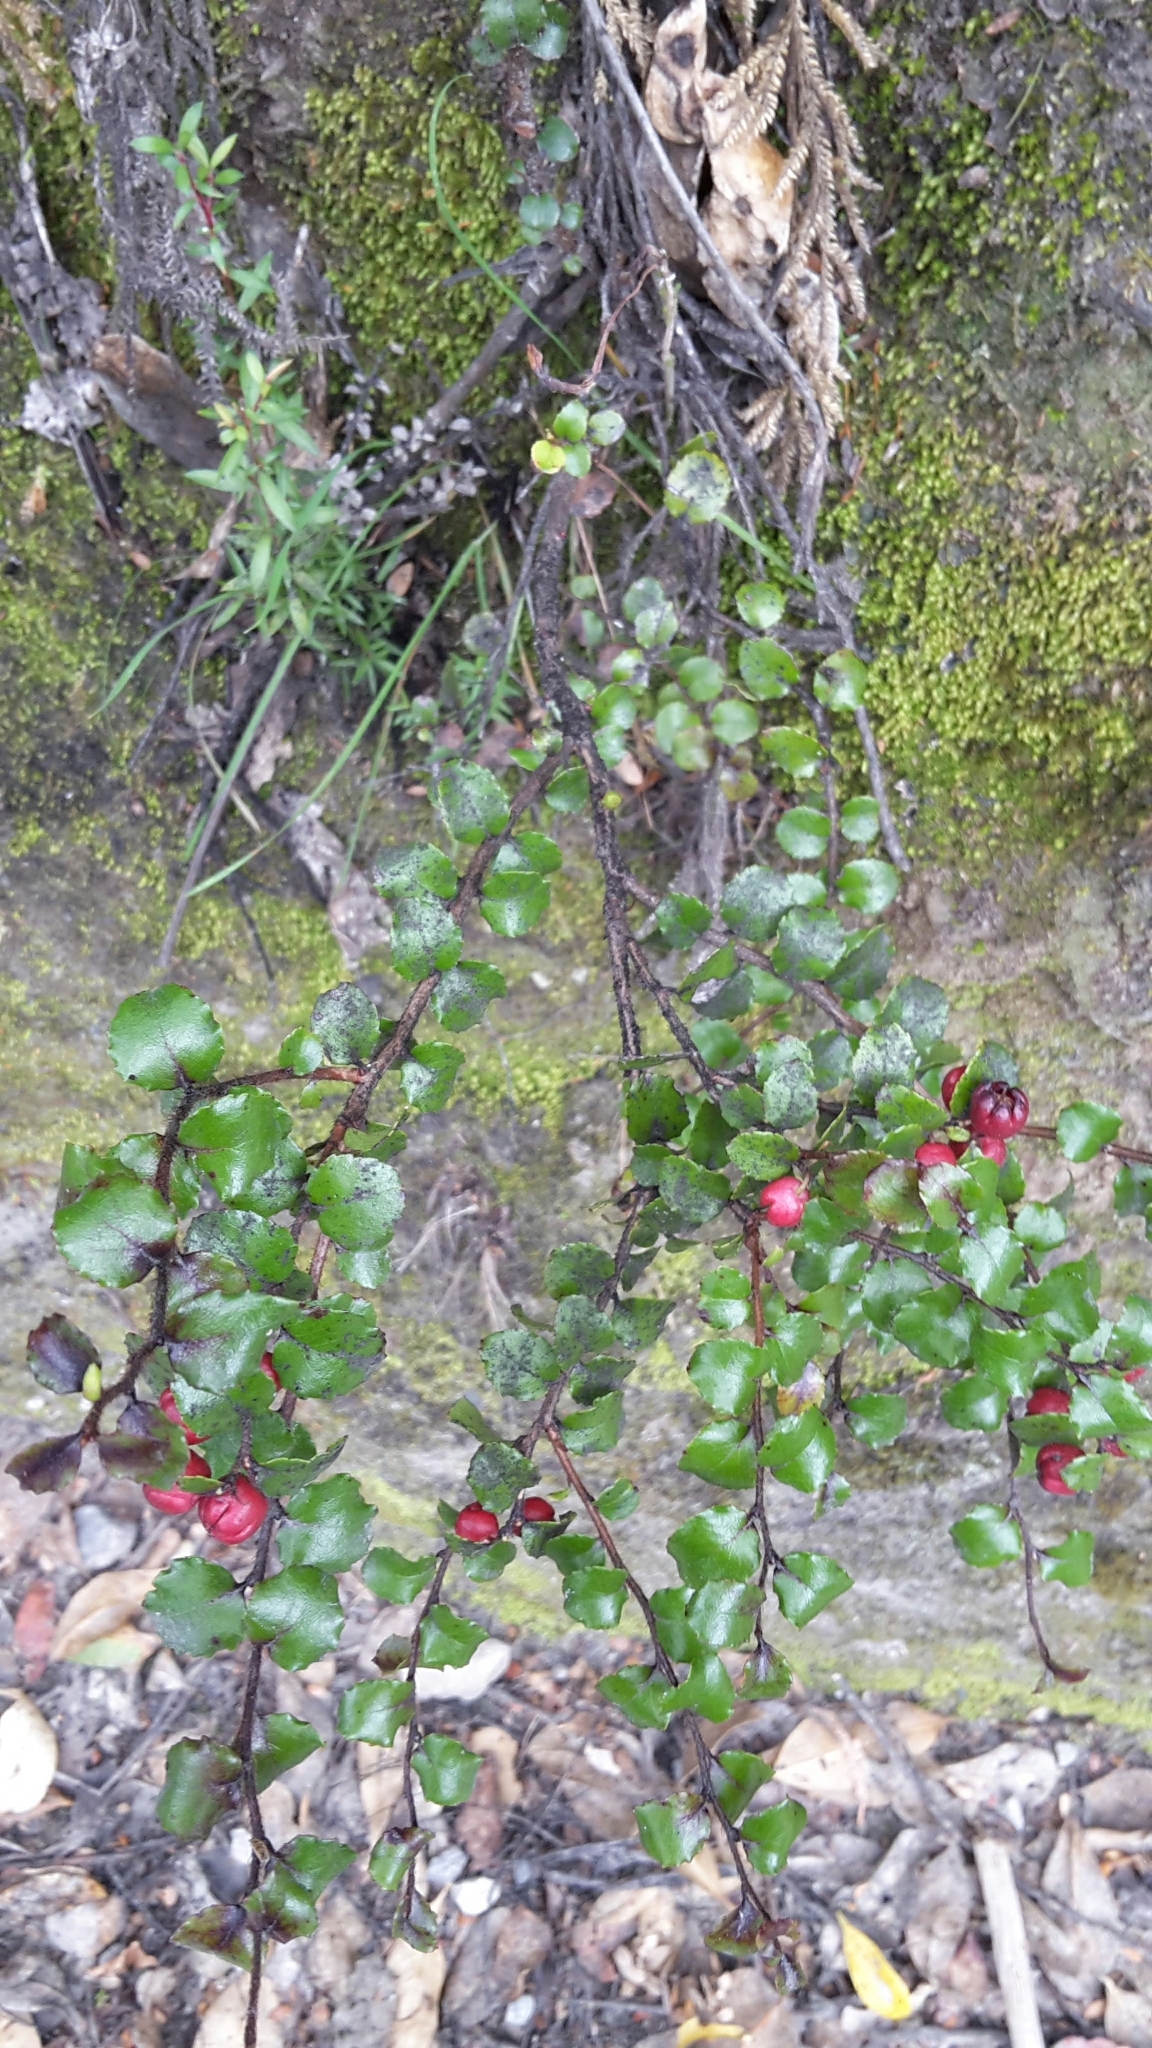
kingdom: Plantae
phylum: Tracheophyta
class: Magnoliopsida
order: Ericales
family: Ericaceae
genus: Gaultheria
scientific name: Gaultheria antipoda
